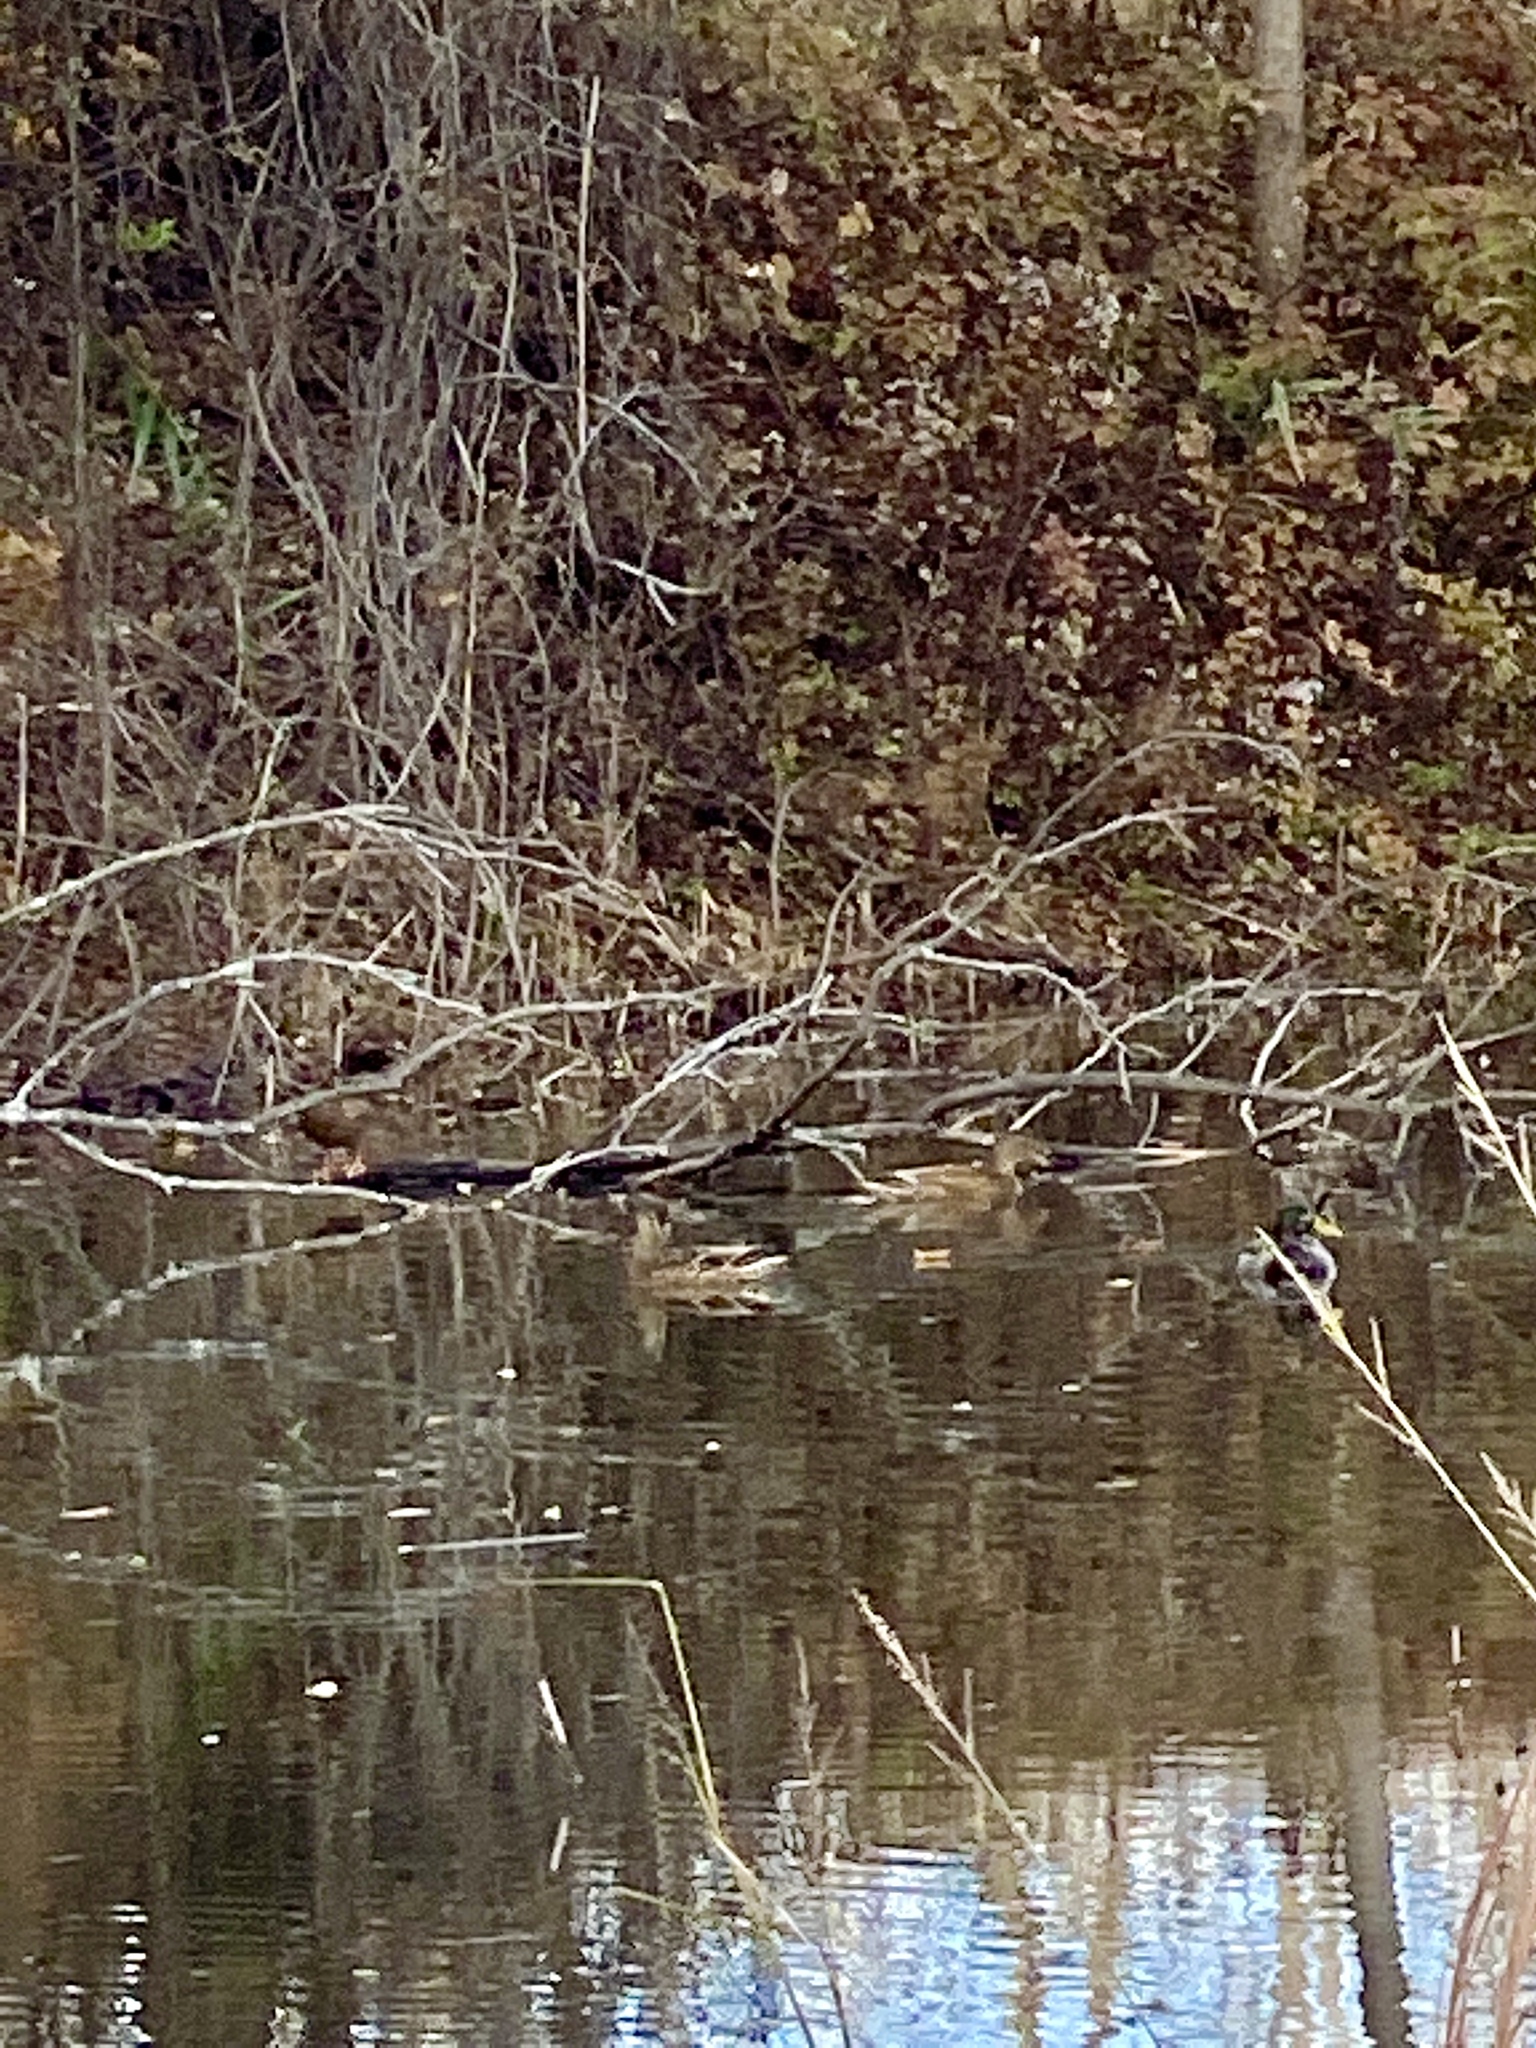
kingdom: Animalia
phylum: Chordata
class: Aves
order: Anseriformes
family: Anatidae
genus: Anas
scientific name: Anas platyrhynchos
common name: Mallard
